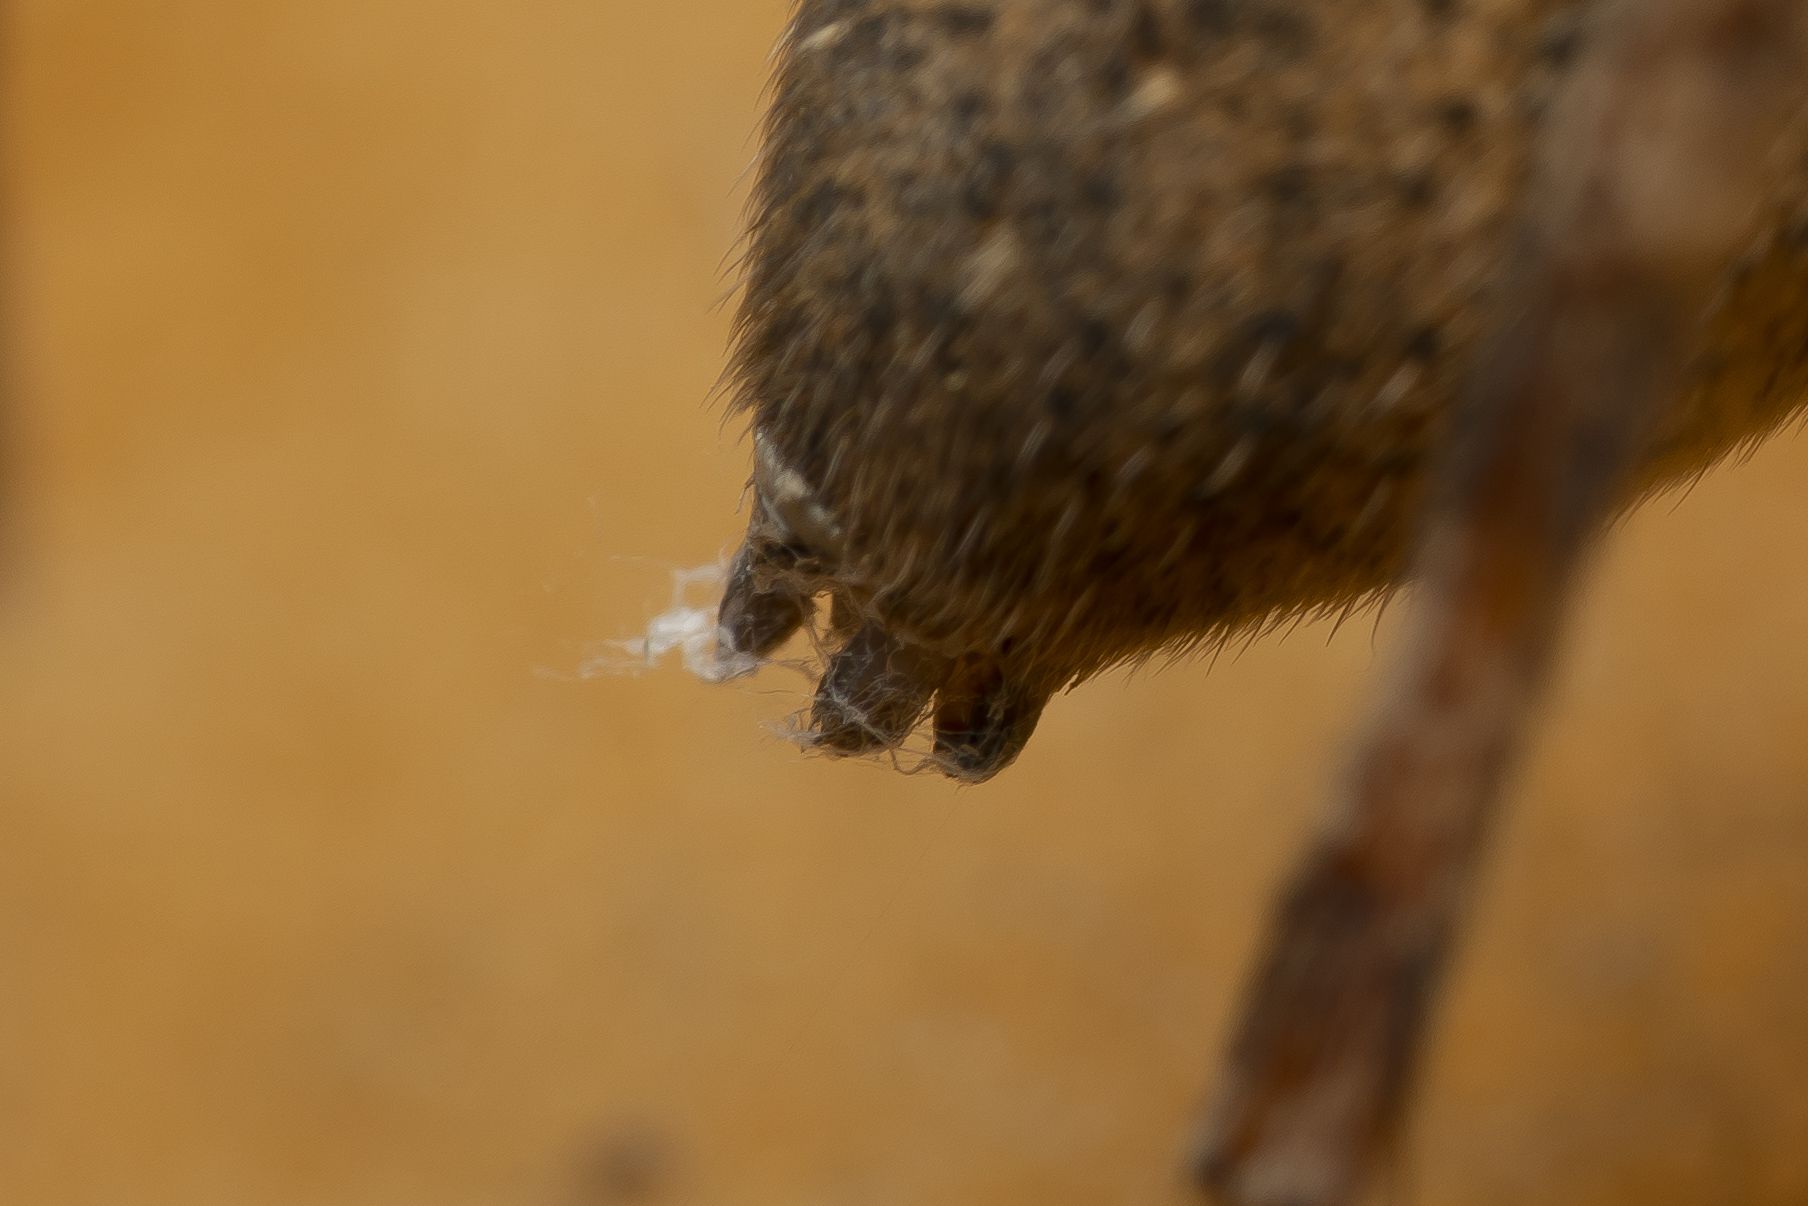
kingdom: Animalia
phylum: Arthropoda
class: Arachnida
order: Araneae
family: Zoropsidae
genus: Zoropsis
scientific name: Zoropsis lutea
